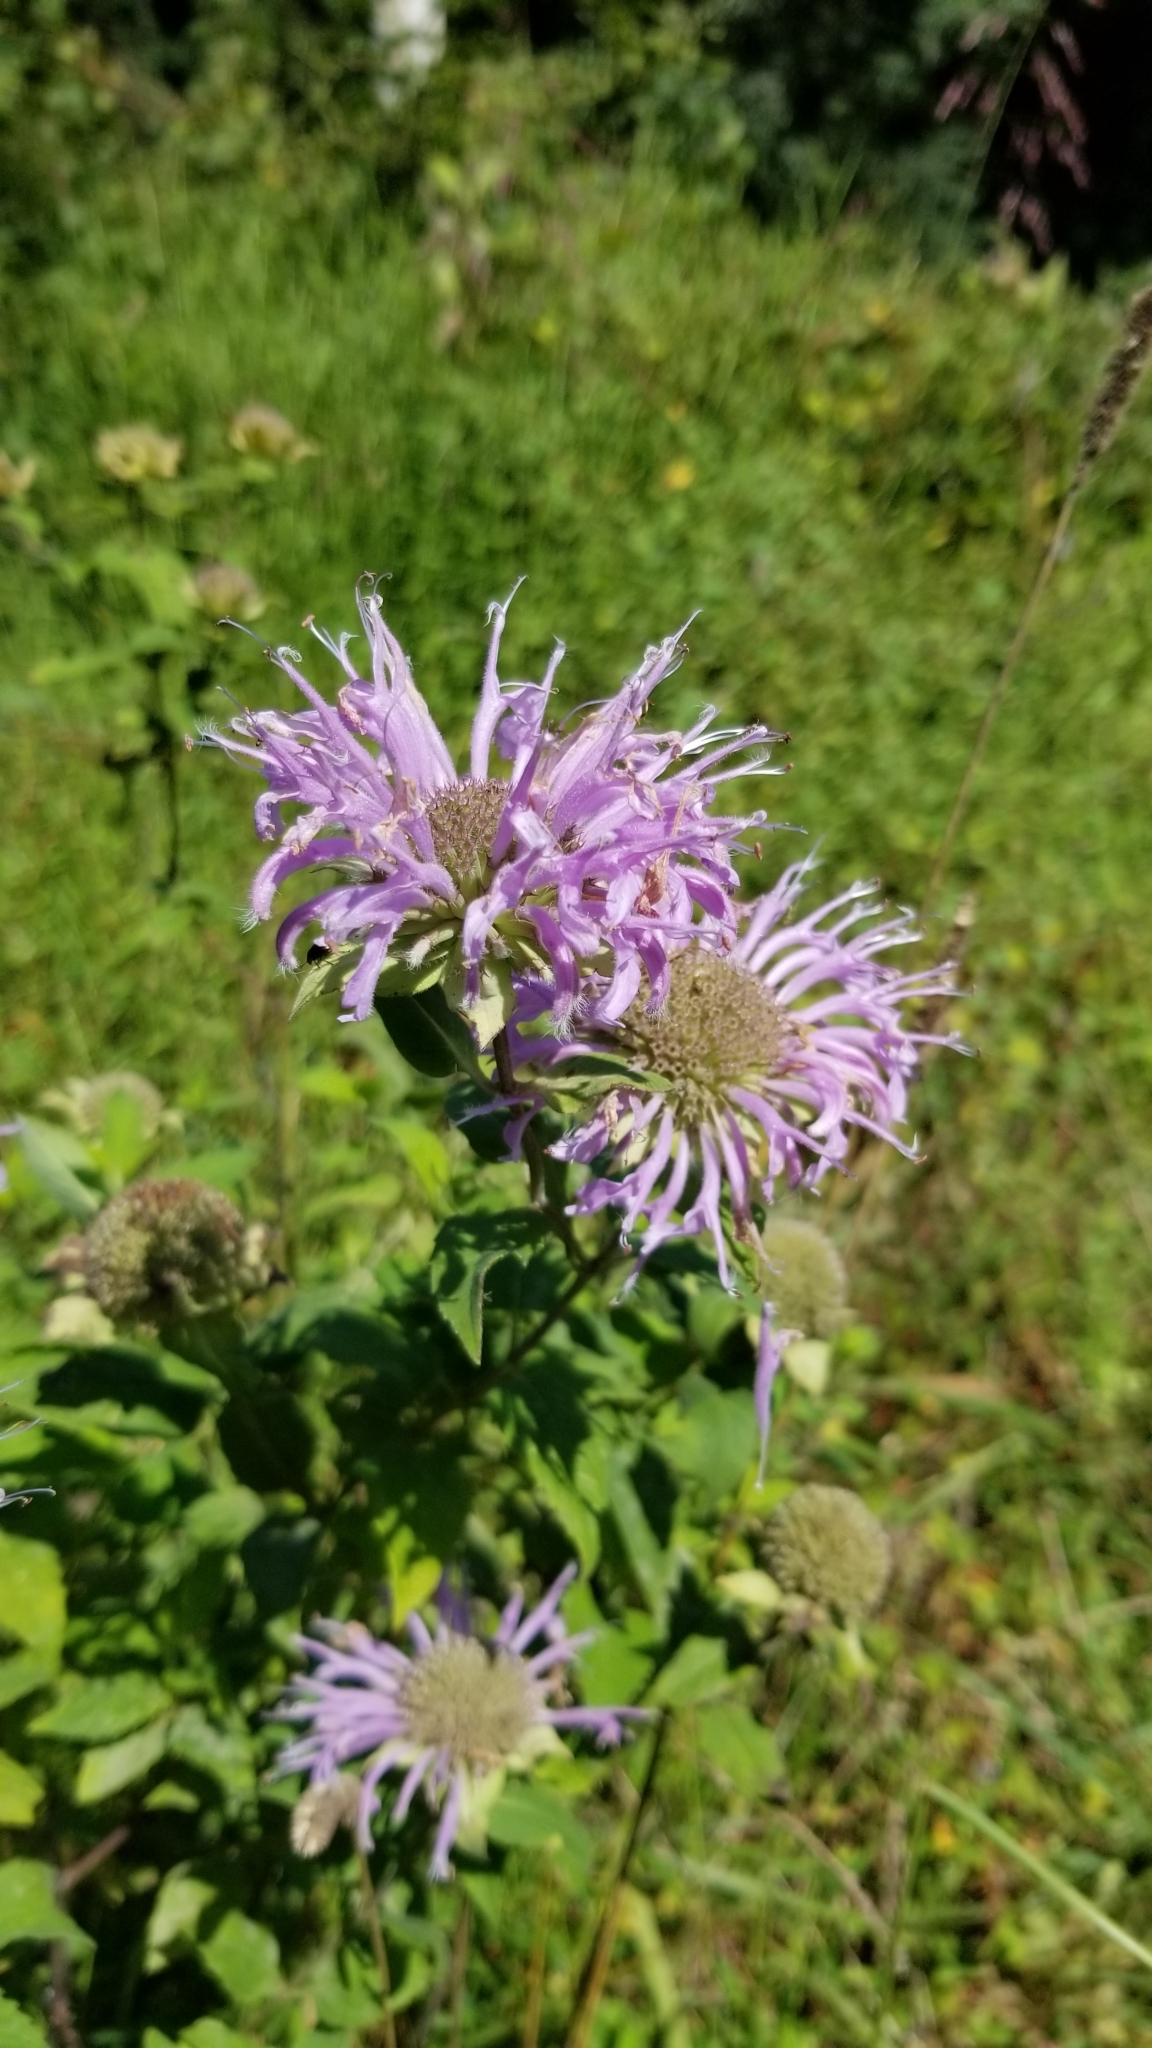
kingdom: Plantae
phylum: Tracheophyta
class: Magnoliopsida
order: Lamiales
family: Lamiaceae
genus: Monarda
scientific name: Monarda fistulosa
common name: Purple beebalm
